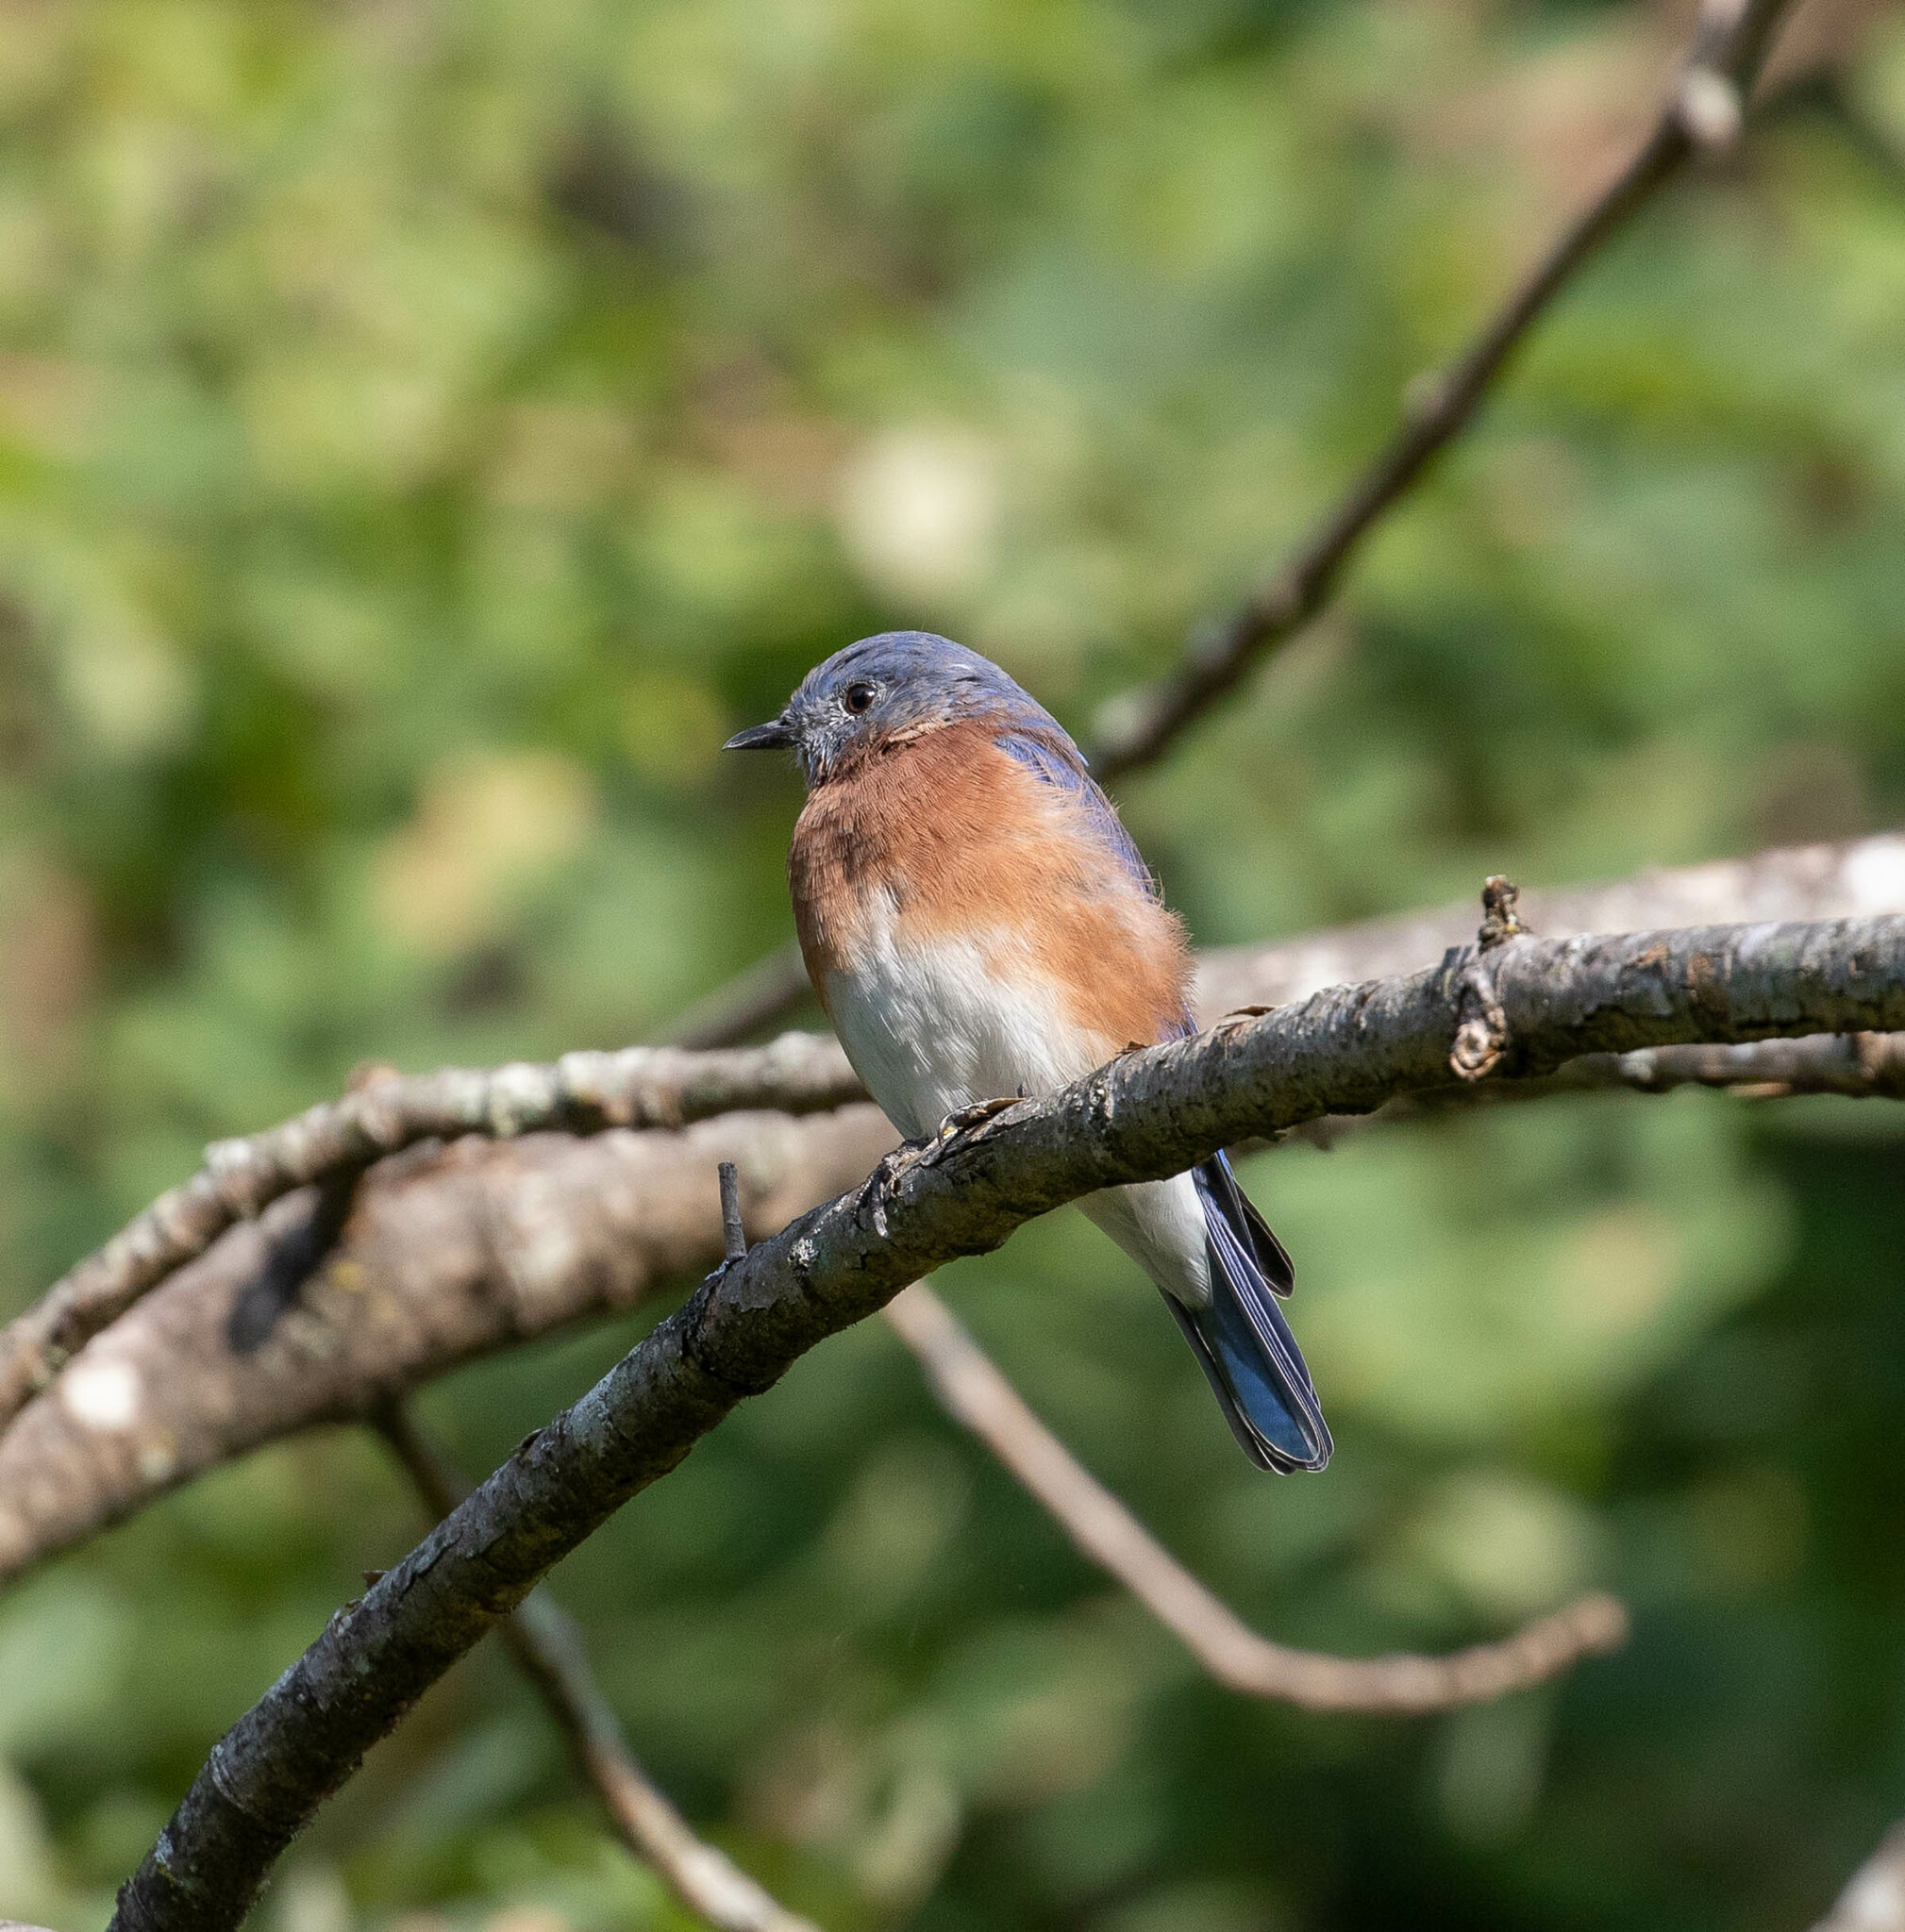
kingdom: Animalia
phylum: Chordata
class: Aves
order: Passeriformes
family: Turdidae
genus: Sialia
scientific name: Sialia sialis
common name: Eastern bluebird
